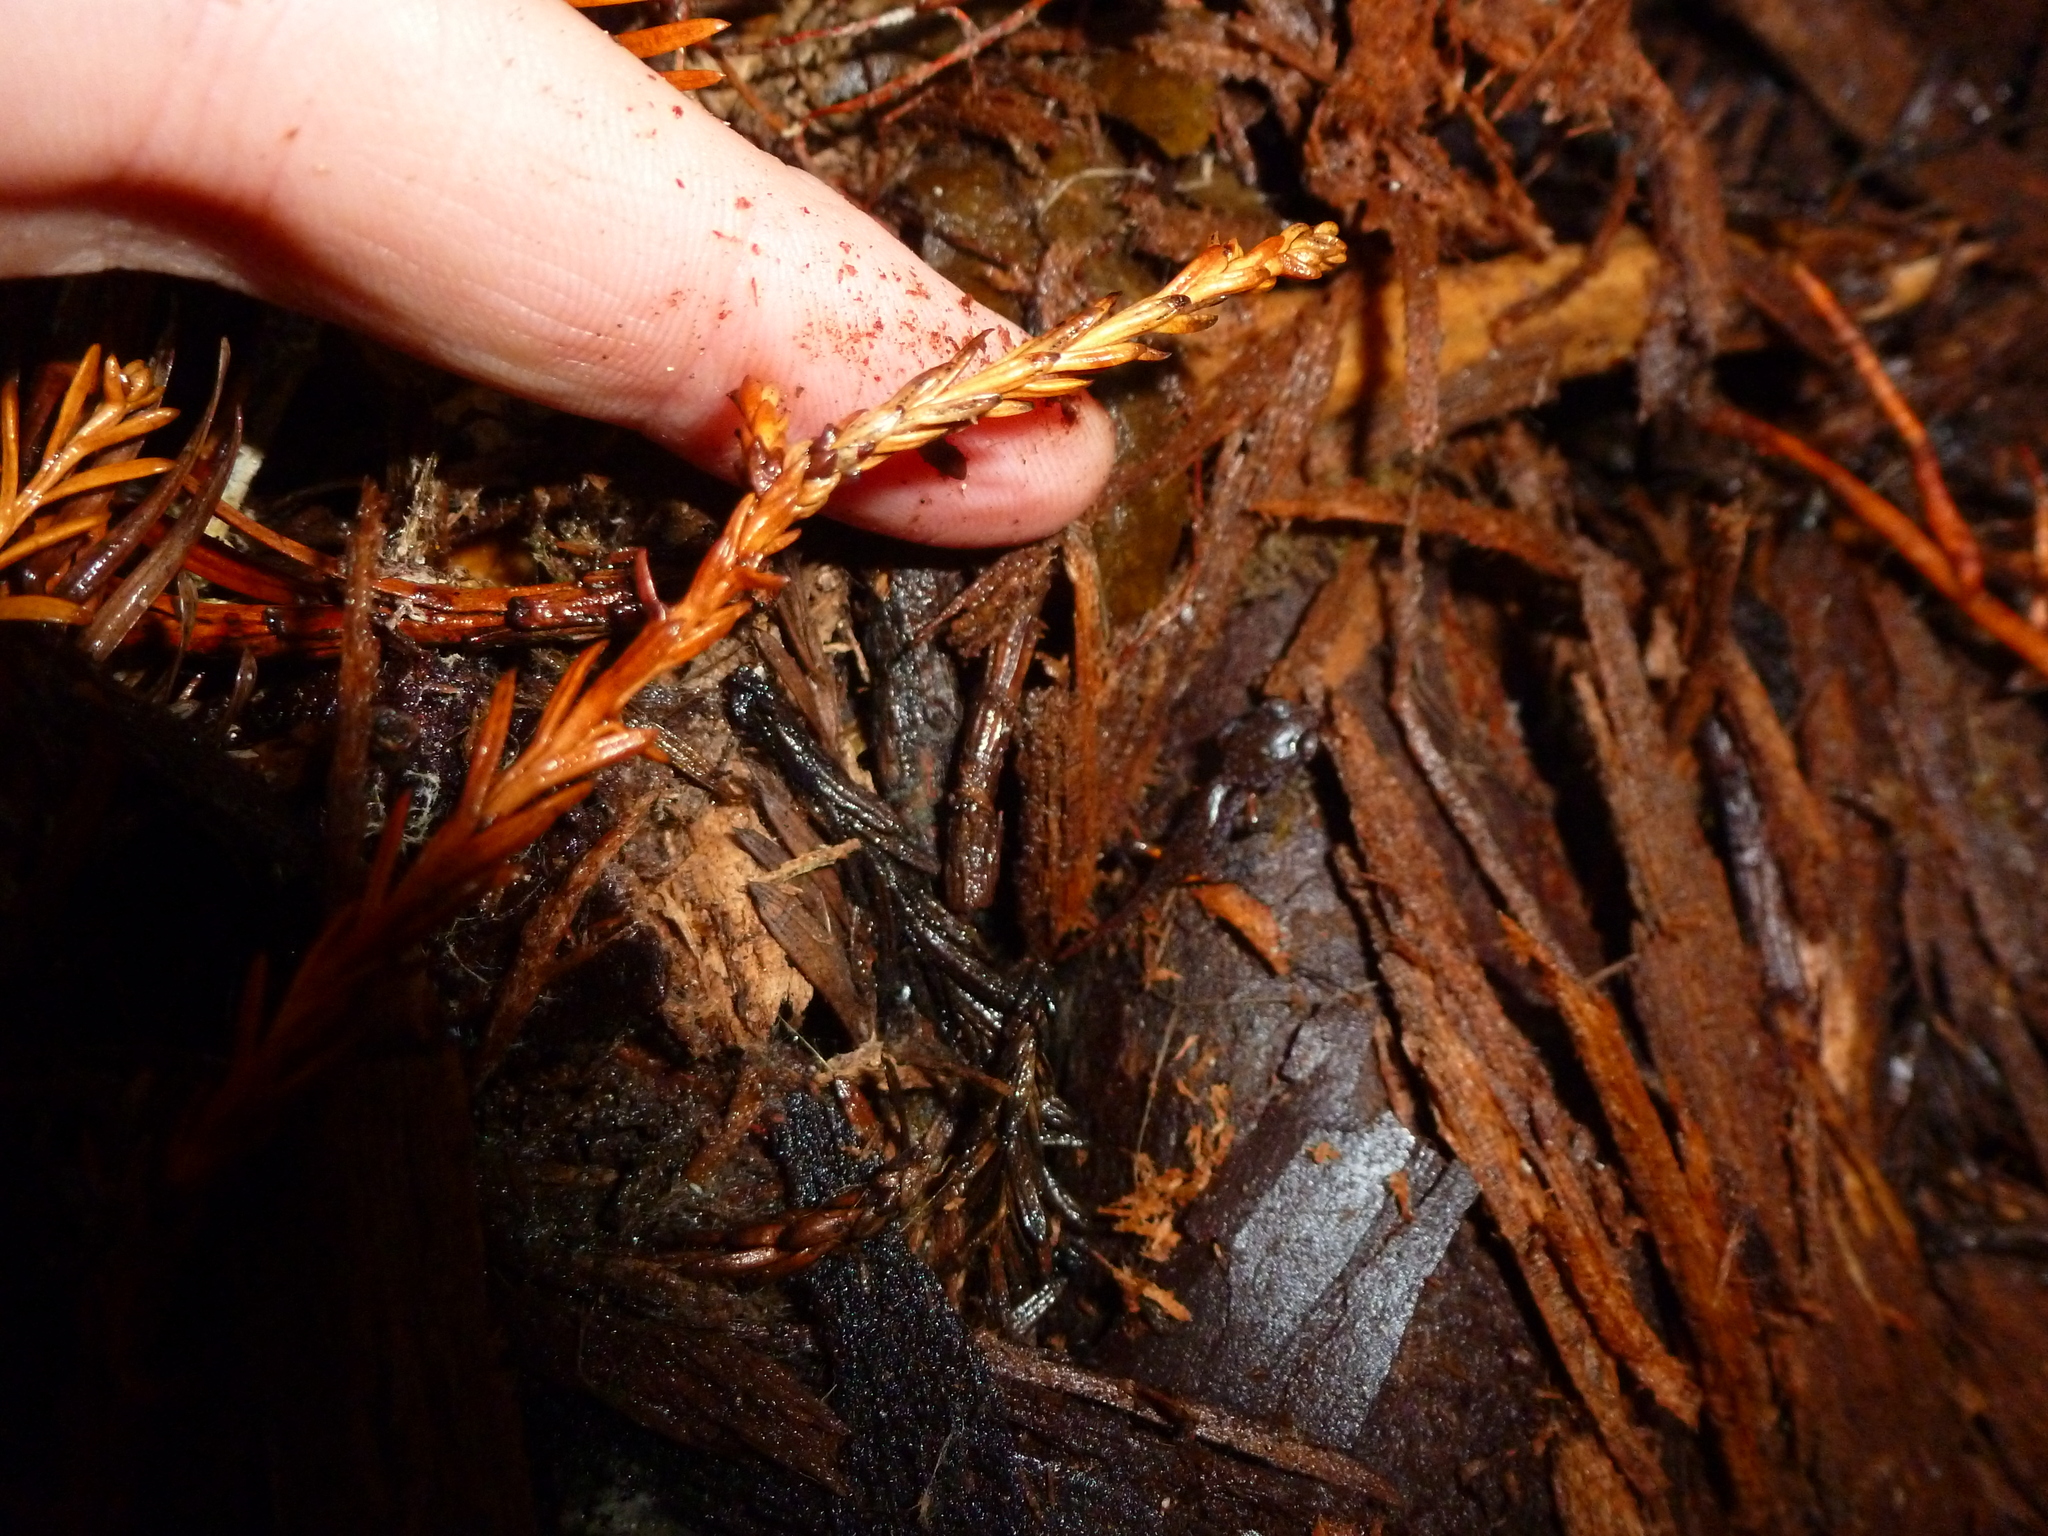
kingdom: Animalia
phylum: Chordata
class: Amphibia
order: Caudata
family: Plethodontidae
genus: Ensatina
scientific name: Ensatina eschscholtzii
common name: Ensatina
